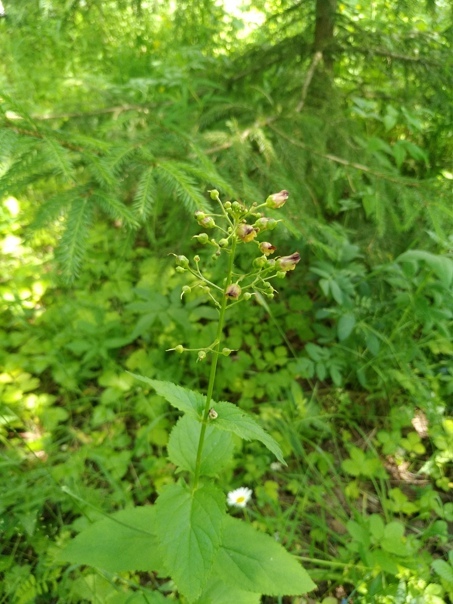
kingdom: Plantae
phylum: Tracheophyta
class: Magnoliopsida
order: Lamiales
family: Scrophulariaceae
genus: Scrophularia
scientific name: Scrophularia nodosa
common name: Common figwort
